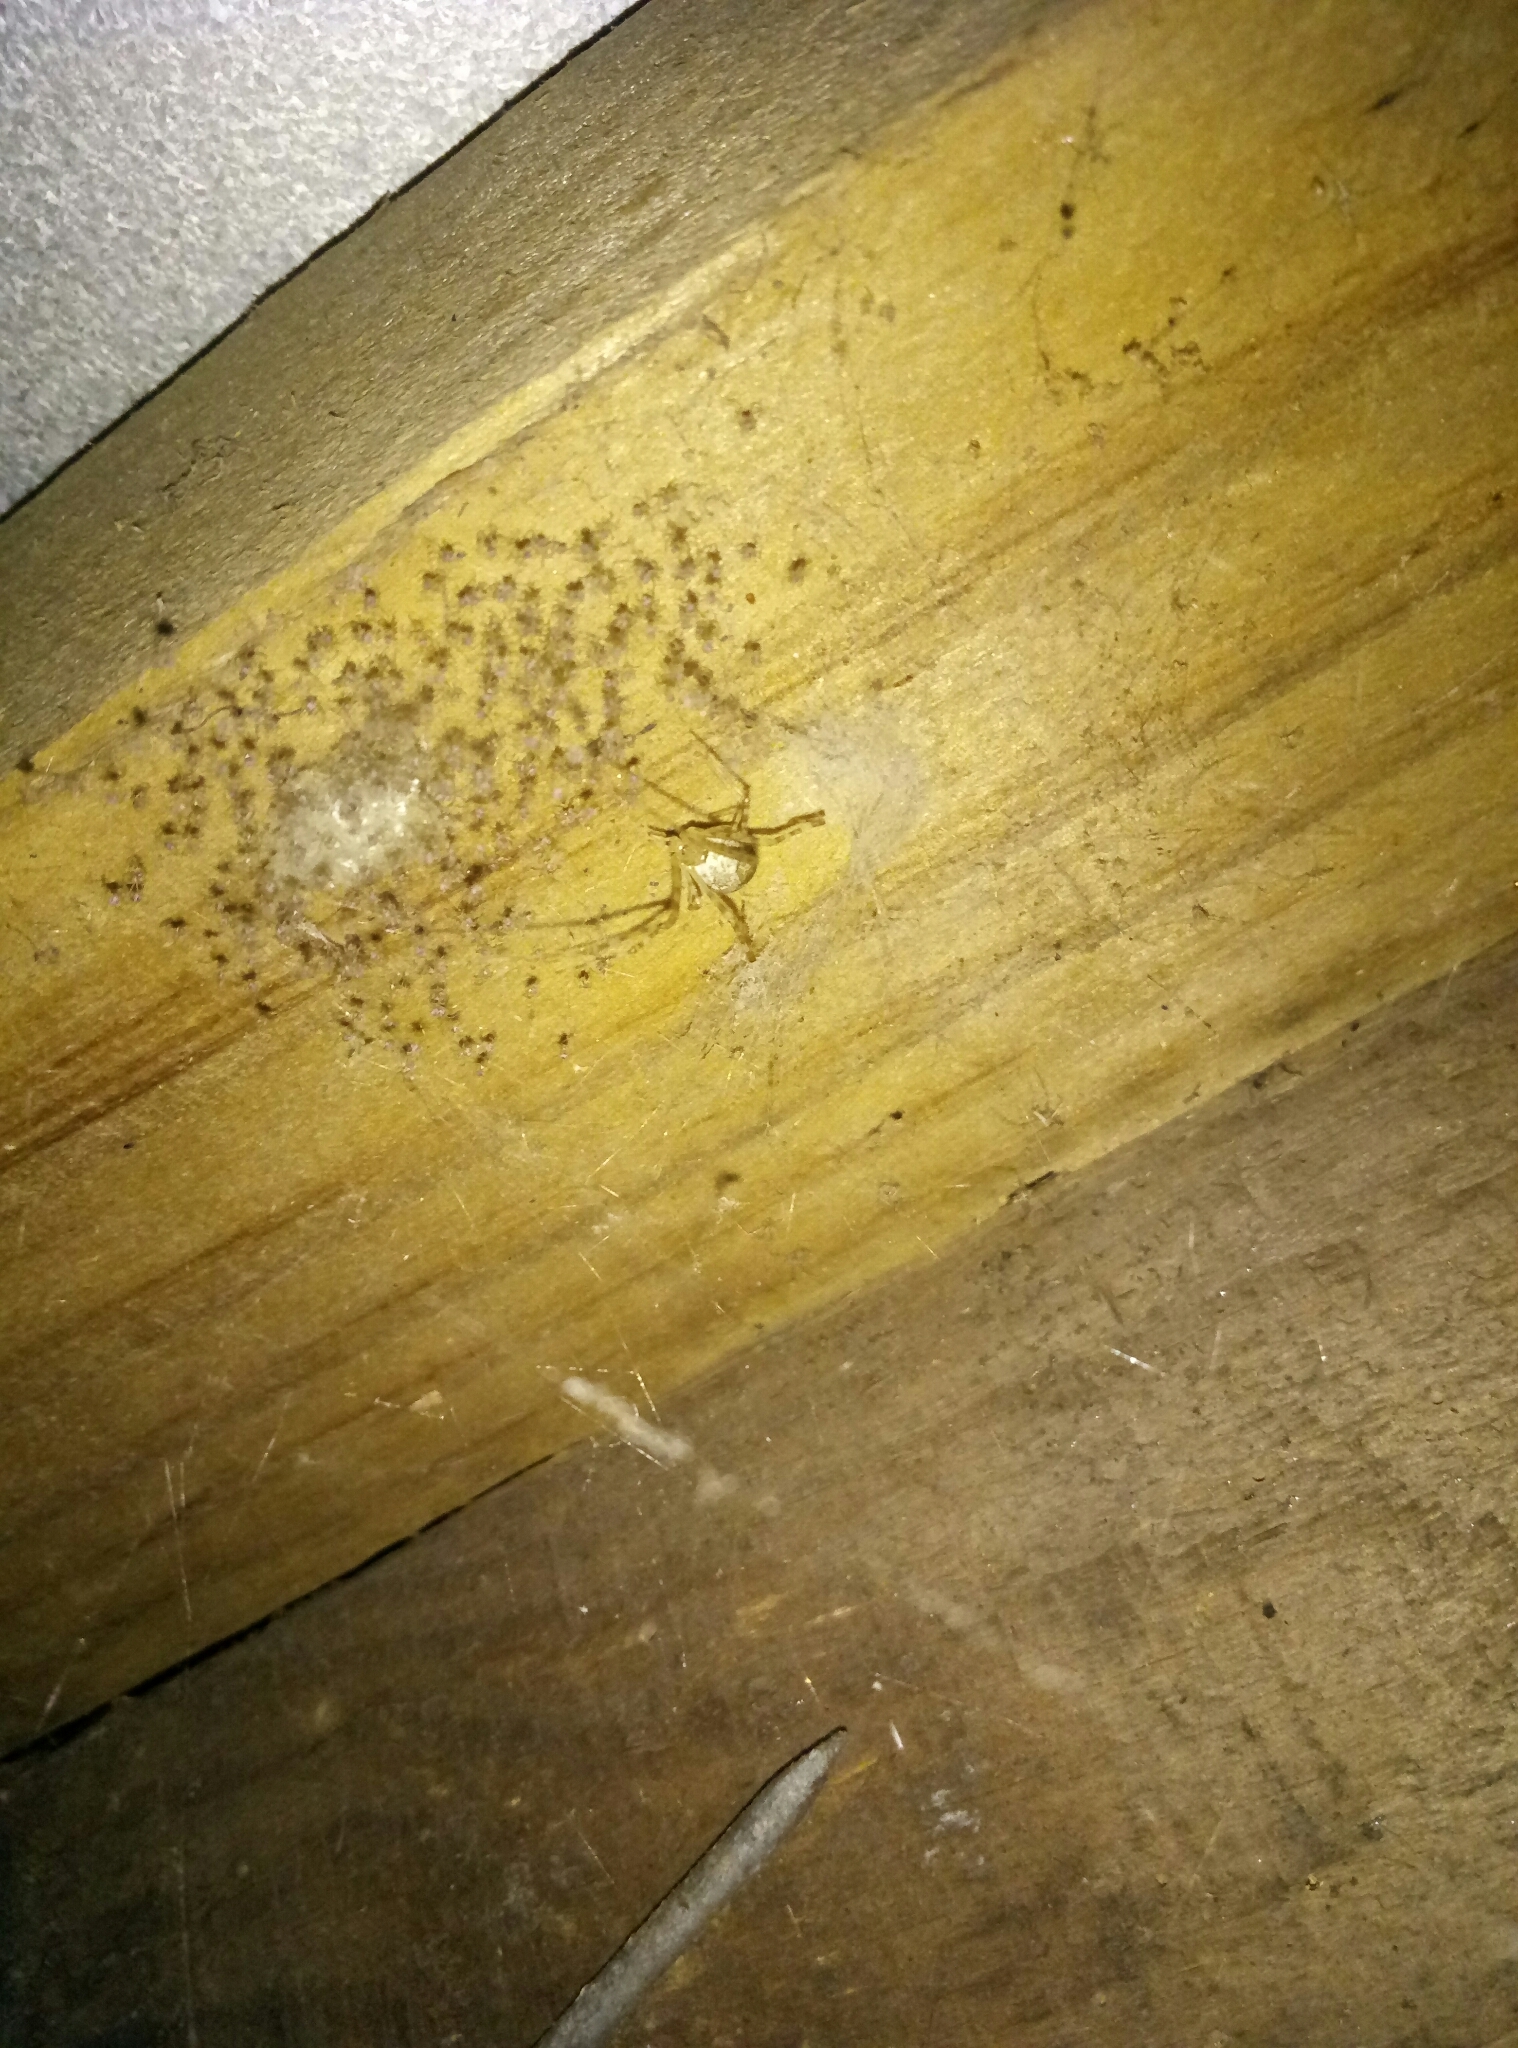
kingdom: Animalia
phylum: Arthropoda
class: Arachnida
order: Araneae
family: Theridiidae
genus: Cryptachaea
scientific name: Cryptachaea gigantipes
